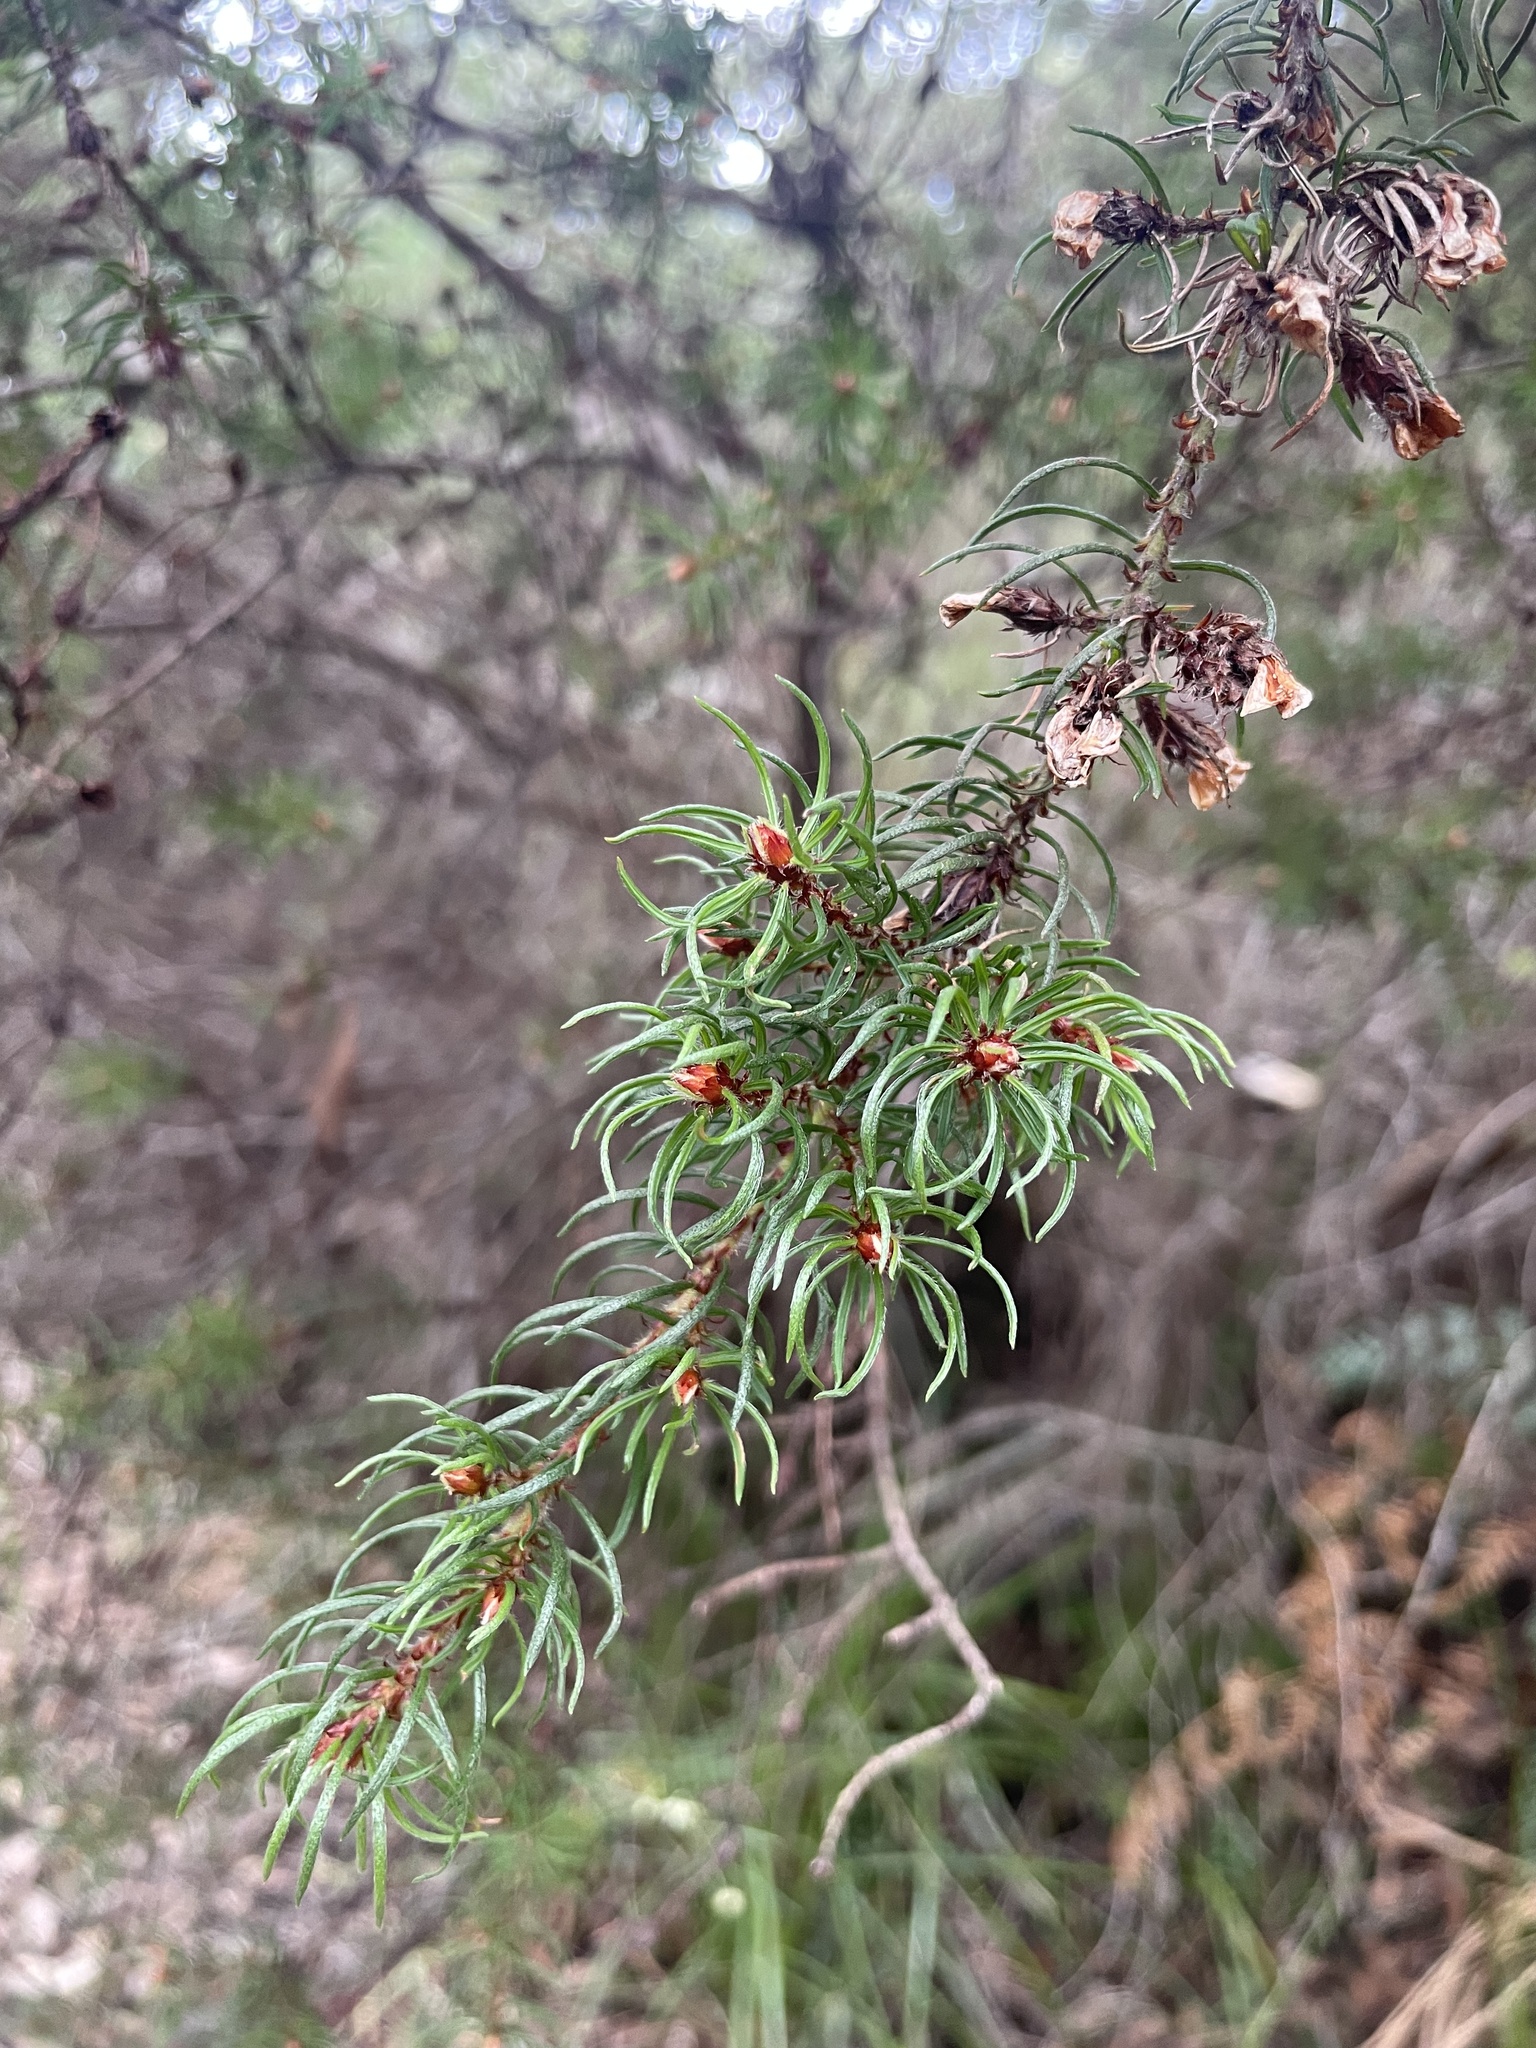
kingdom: Plantae
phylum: Tracheophyta
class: Magnoliopsida
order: Dilleniales
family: Dilleniaceae
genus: Hibbertia
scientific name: Hibbertia fasciculata
